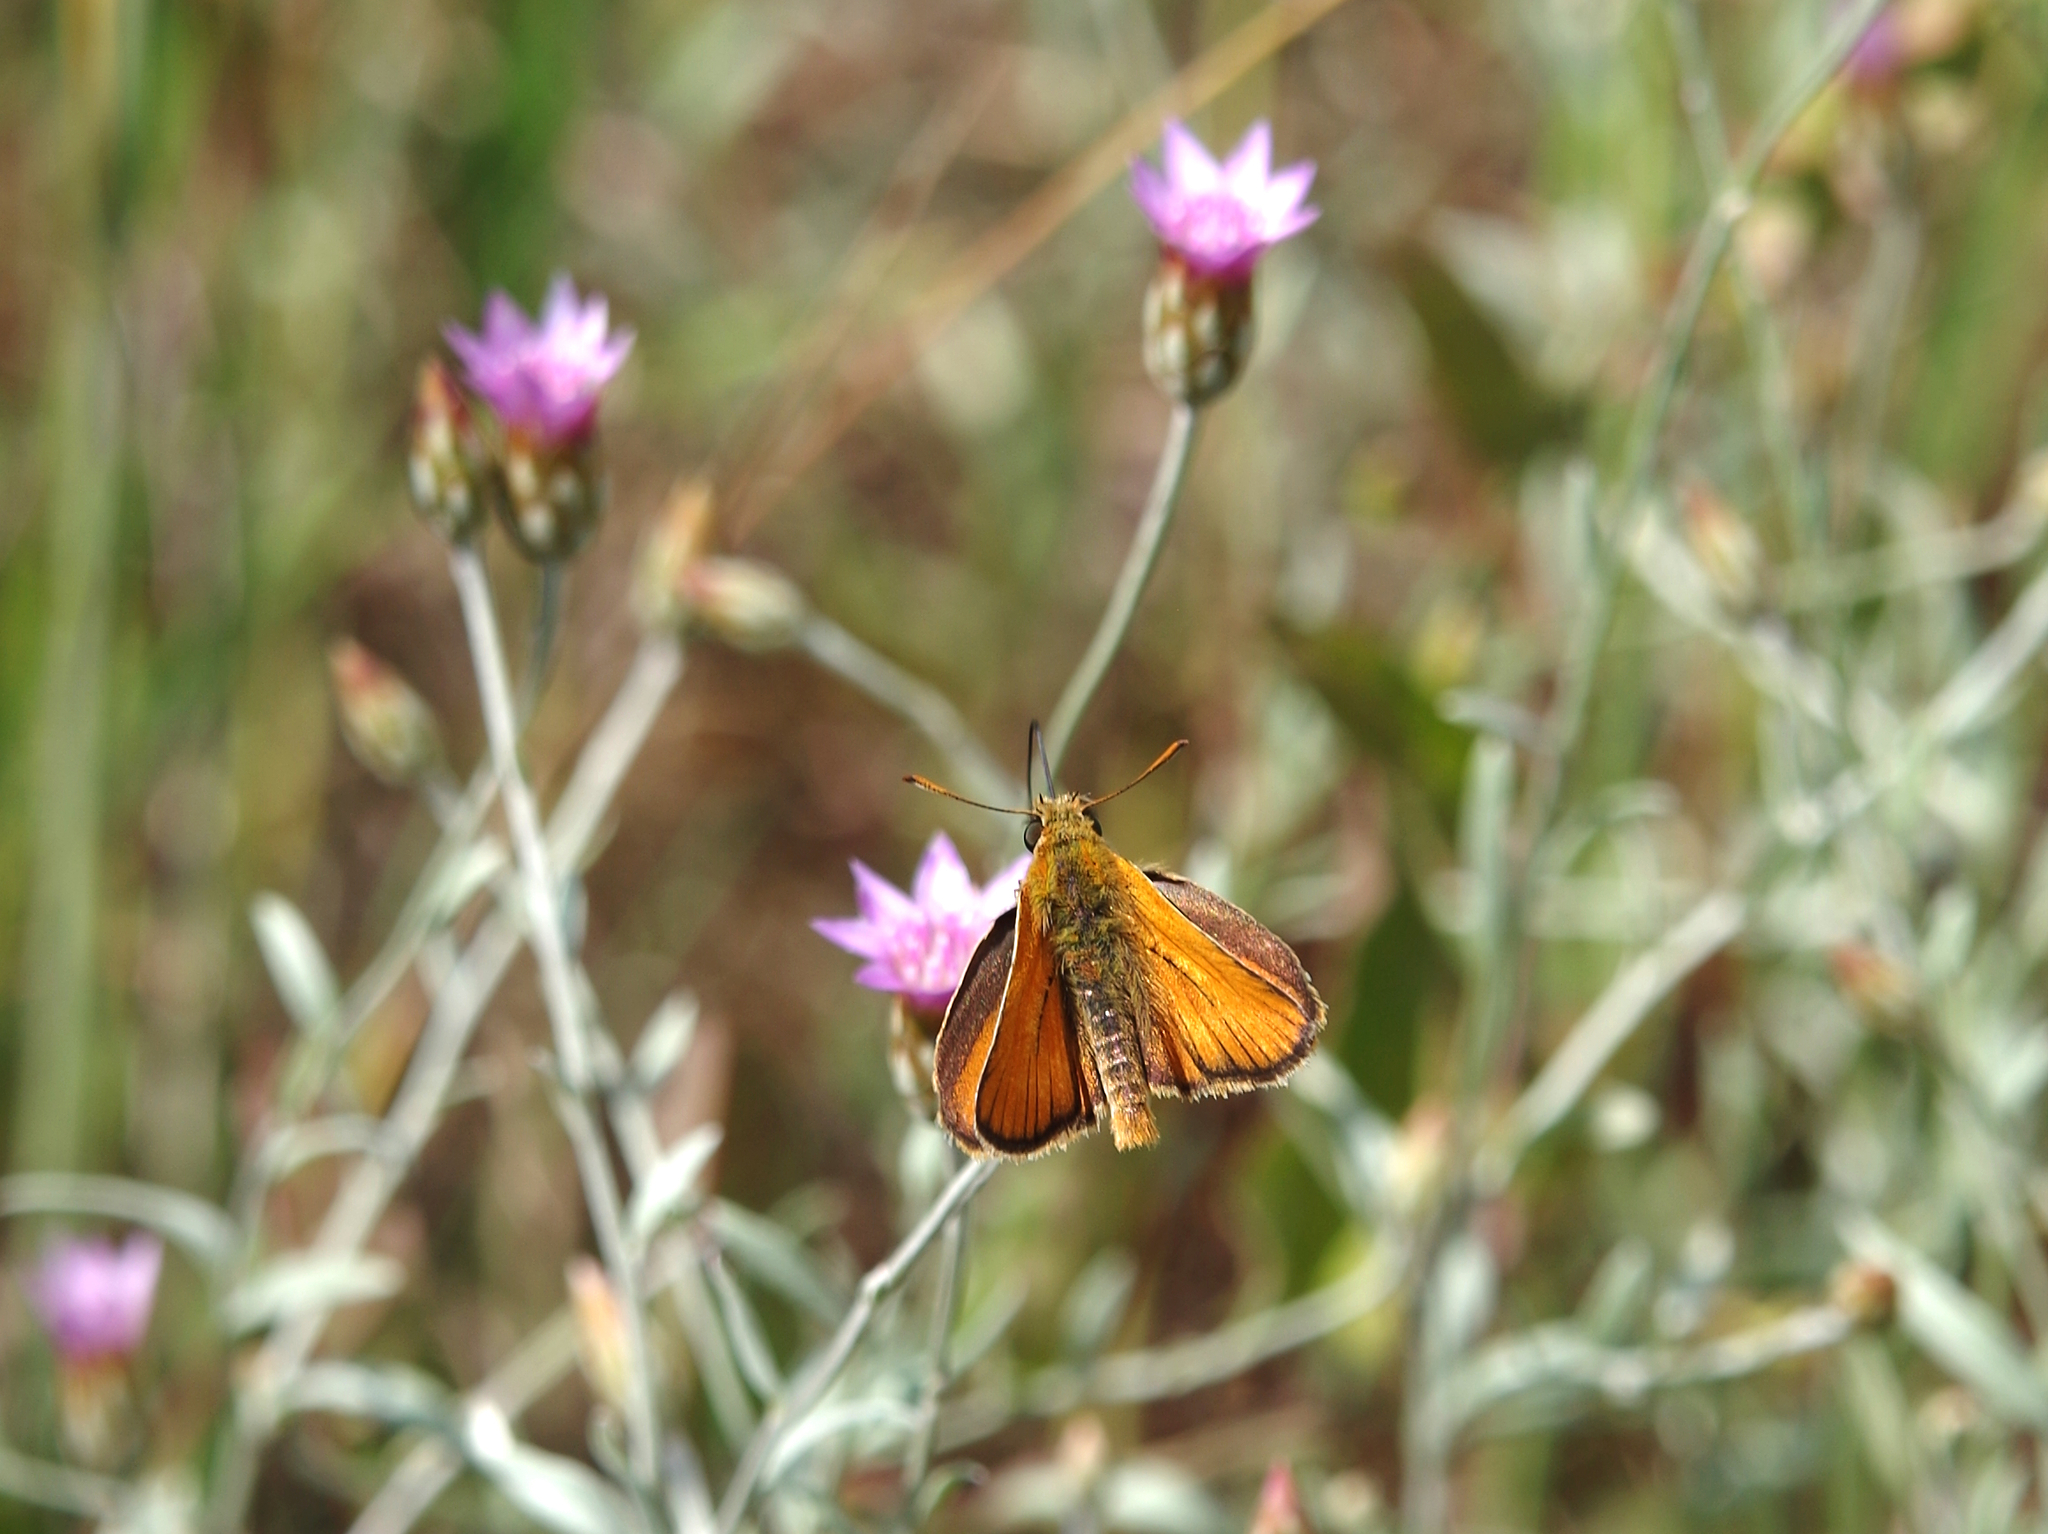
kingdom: Plantae
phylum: Tracheophyta
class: Magnoliopsida
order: Asterales
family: Asteraceae
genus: Xeranthemum
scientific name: Xeranthemum cylindraceum
